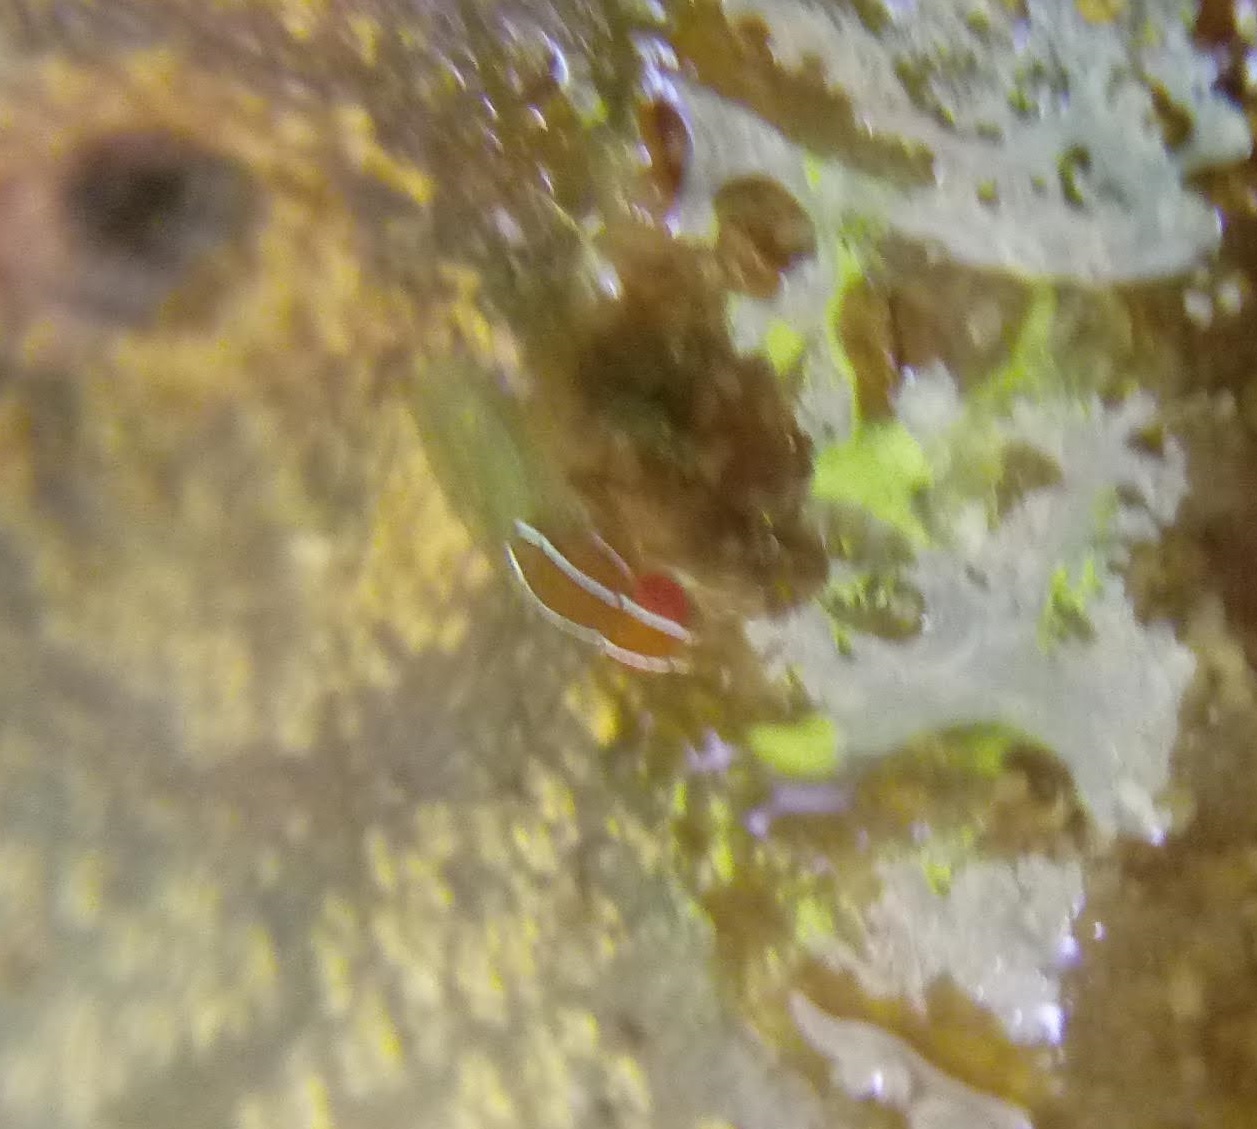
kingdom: Animalia
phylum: Arthropoda
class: Insecta
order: Diptera
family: Drosophilidae
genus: Zaprionus
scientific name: Zaprionus indianus
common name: African fig fly
